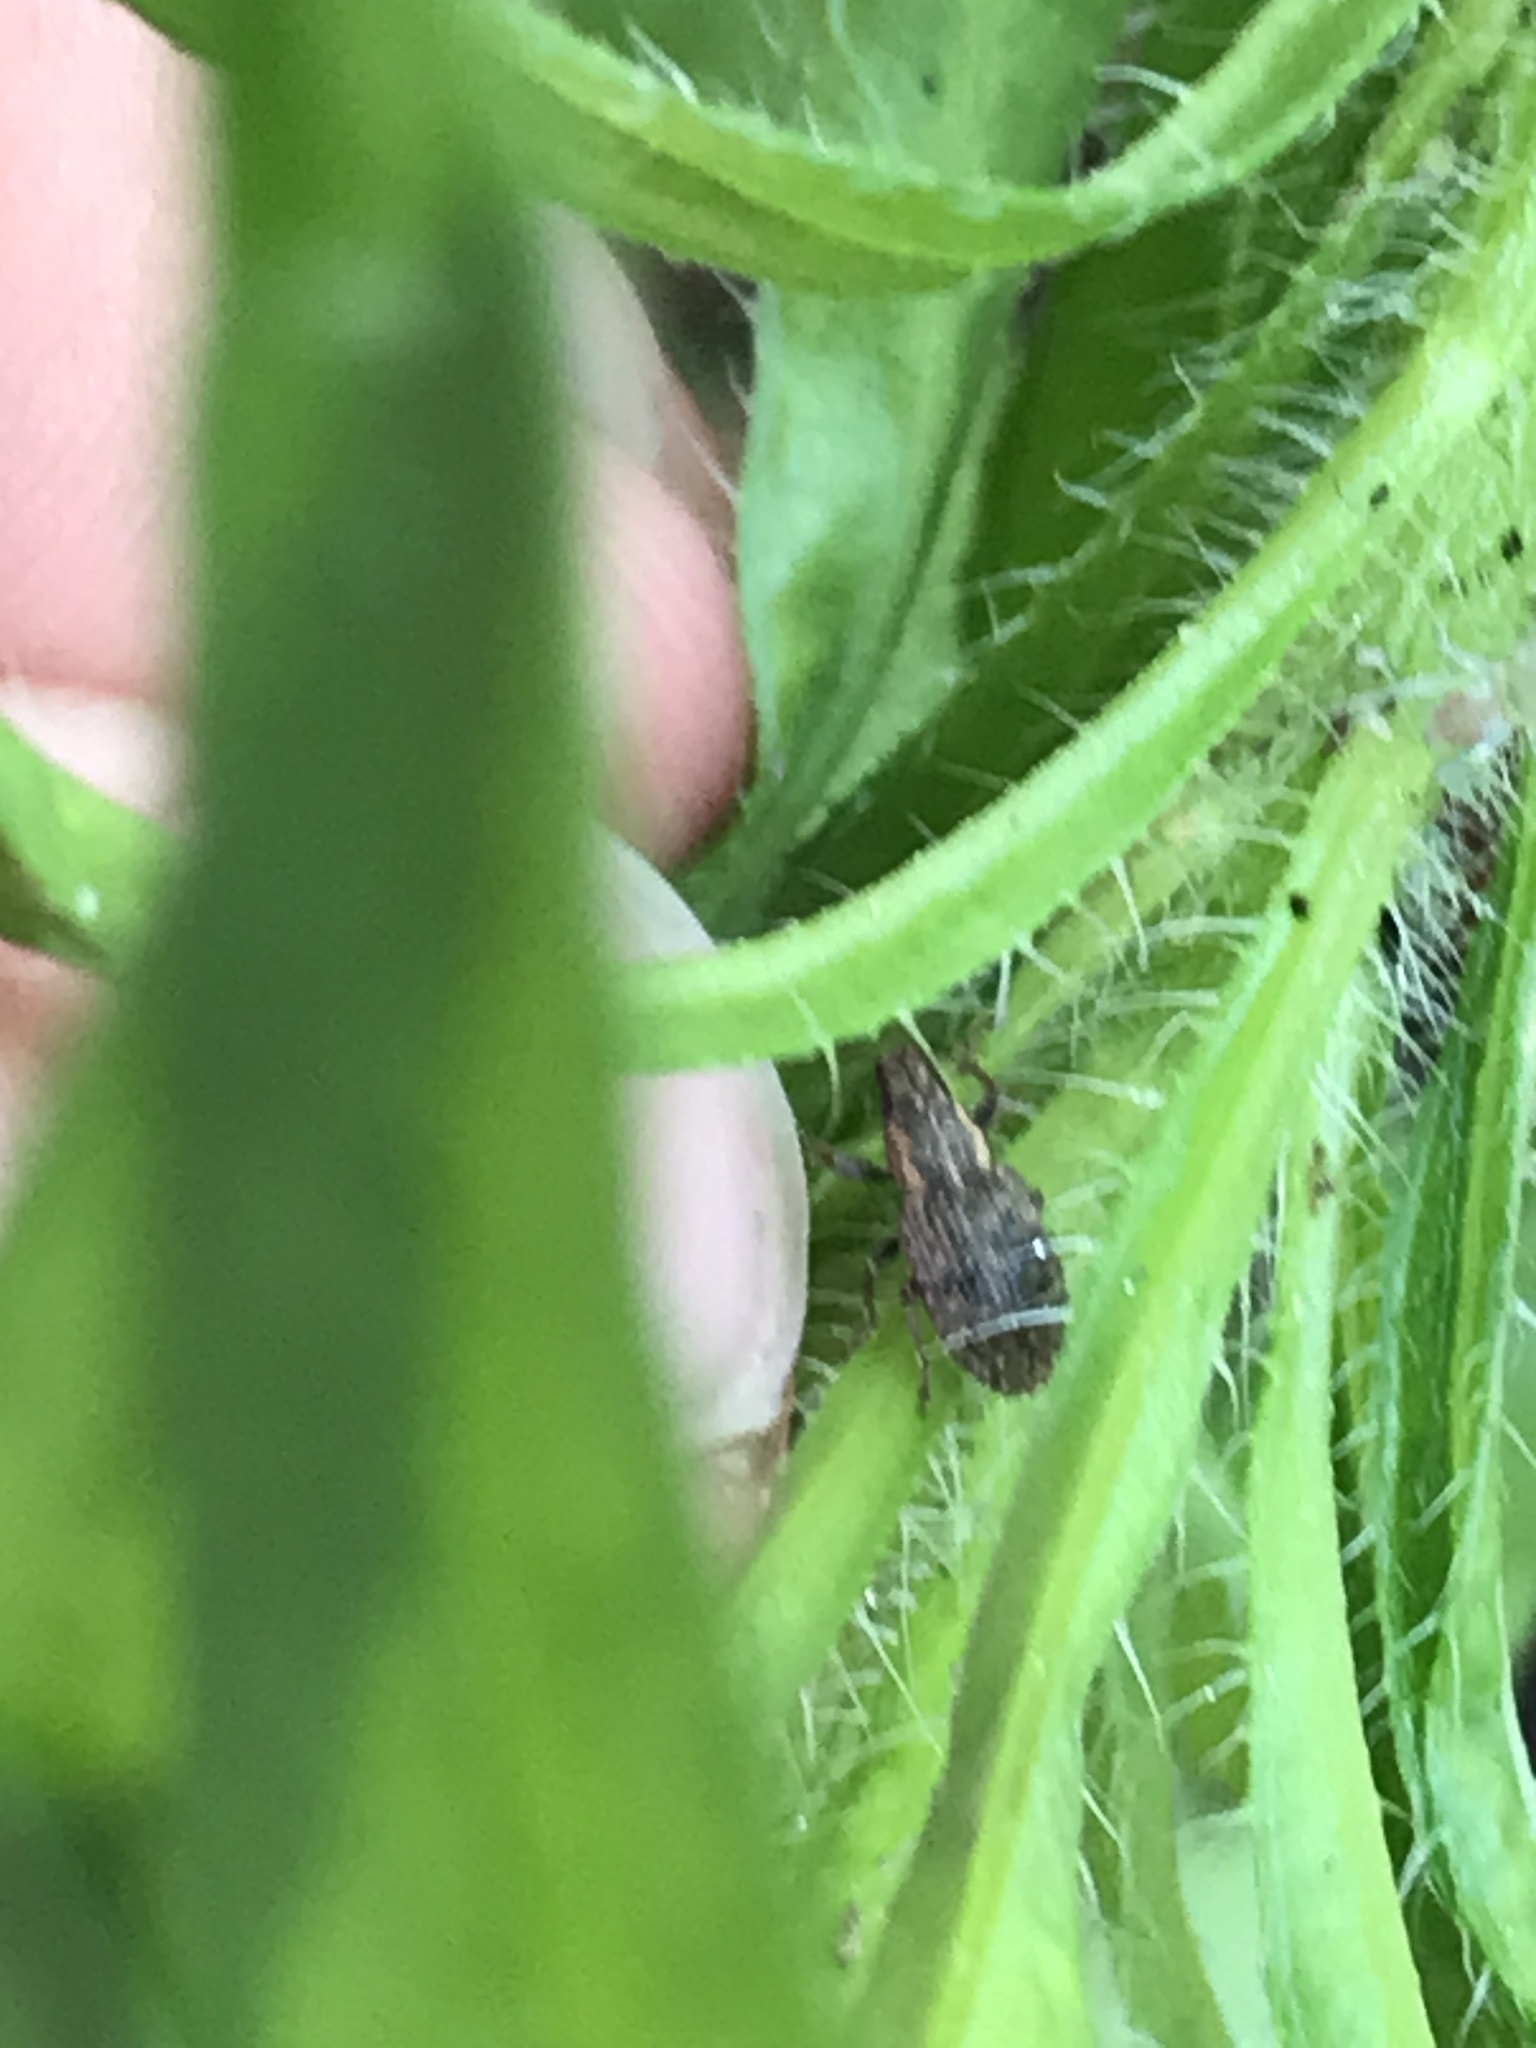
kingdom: Animalia
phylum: Arthropoda
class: Insecta
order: Coleoptera
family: Curculionidae
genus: Sitona
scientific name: Sitona hispidulus
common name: Clover weevil
